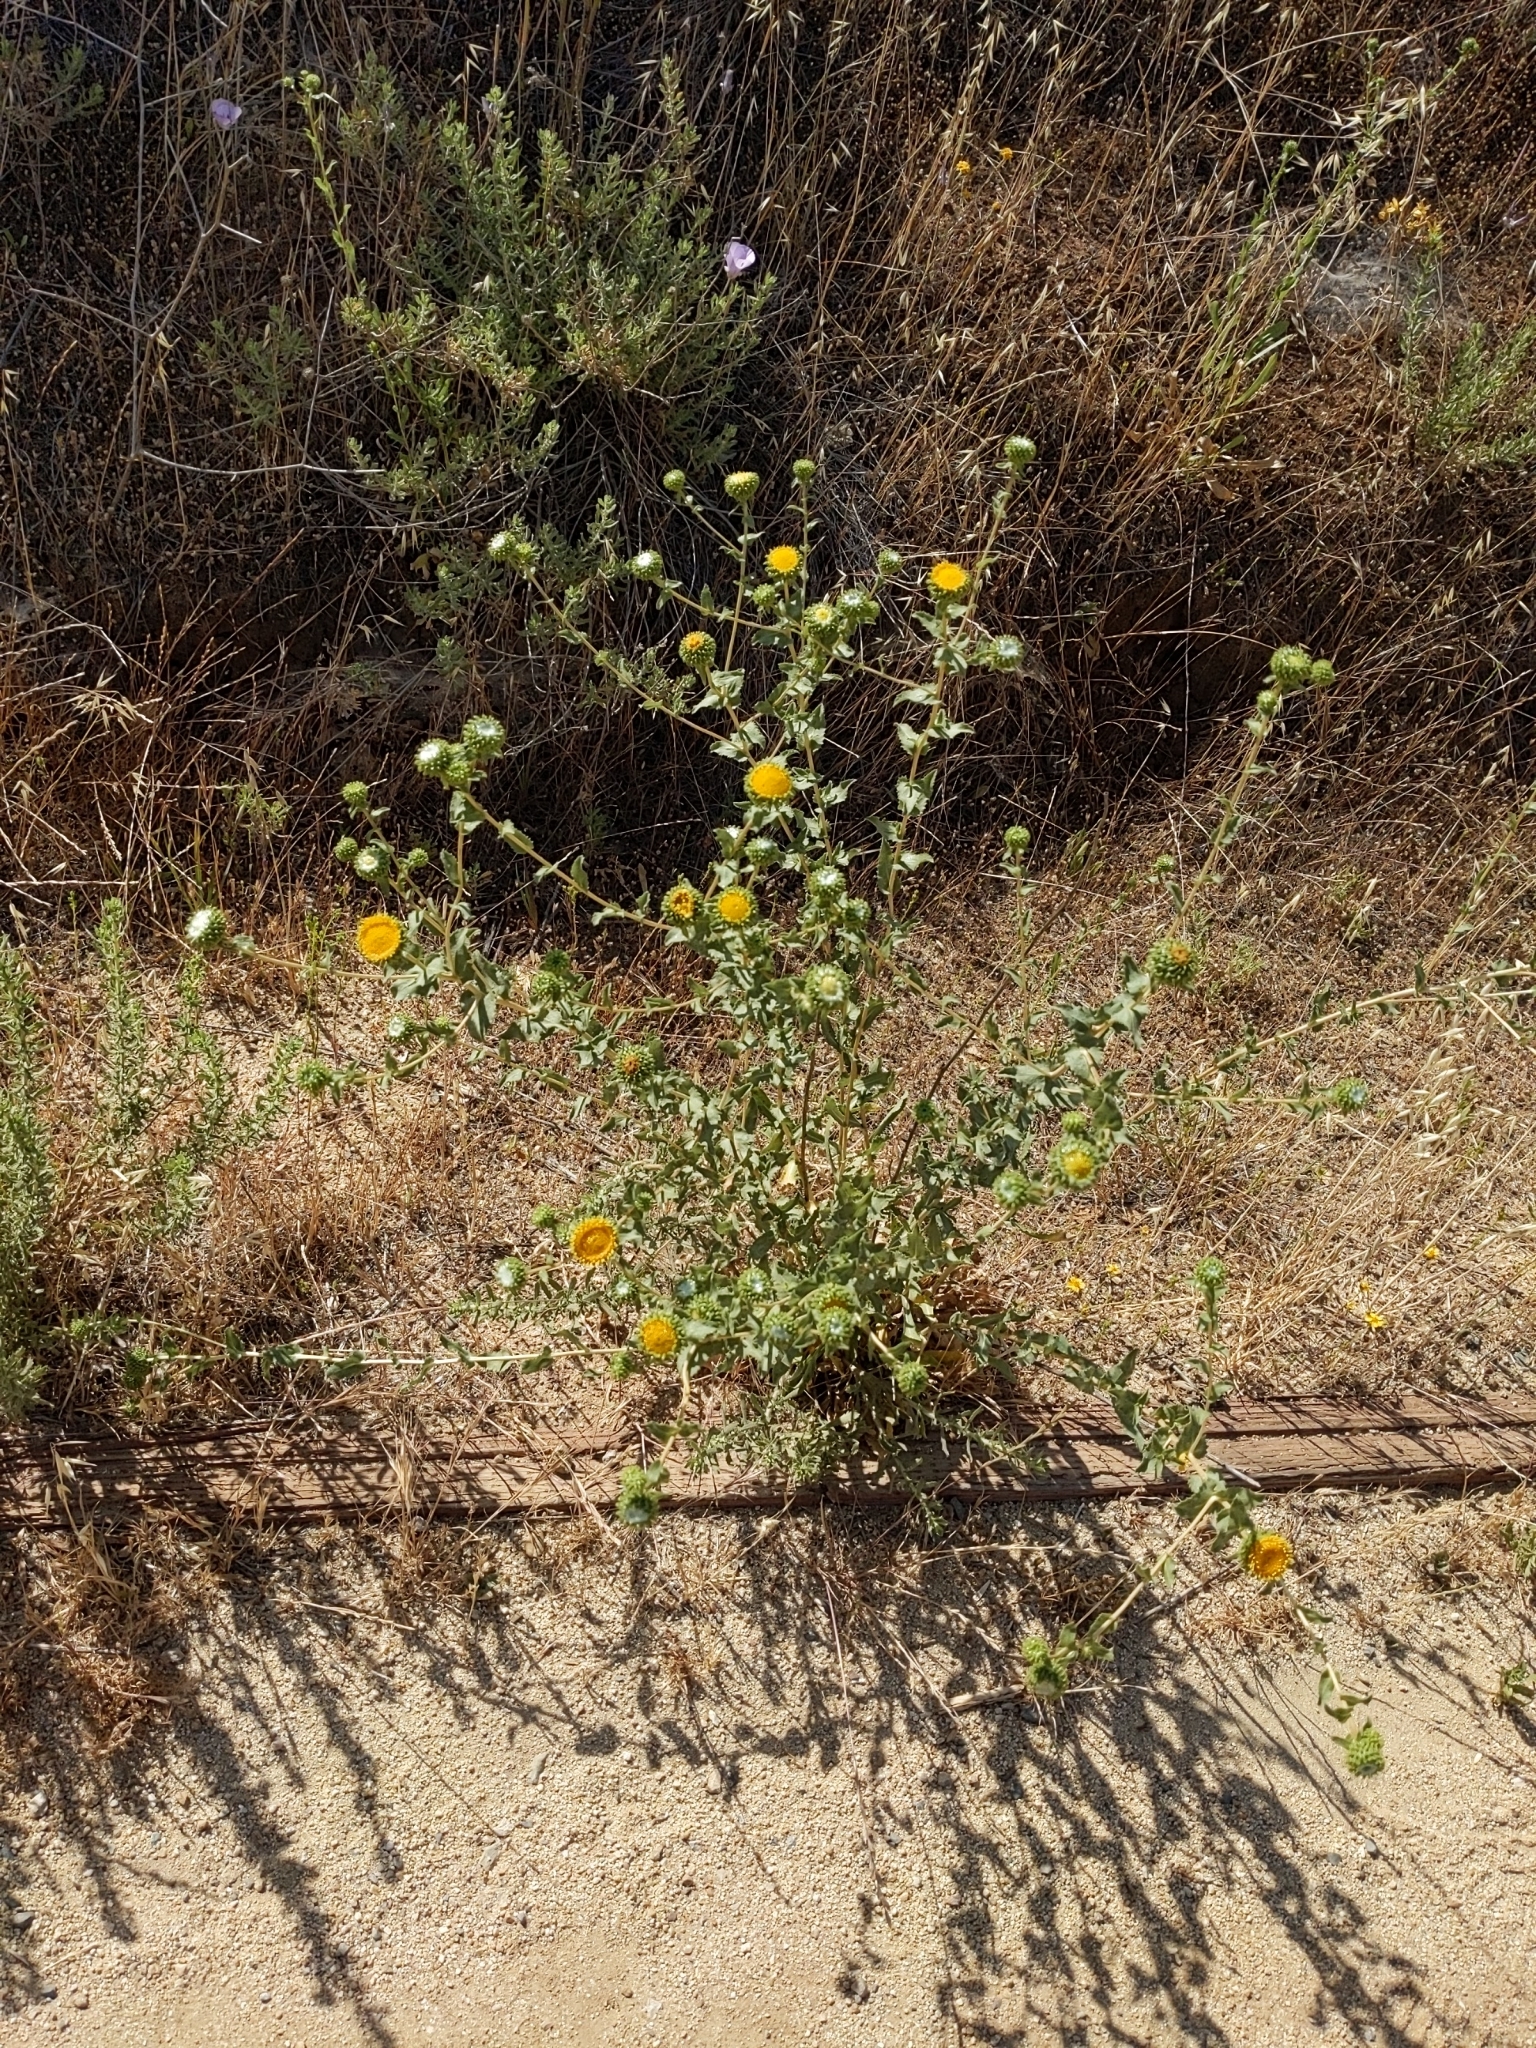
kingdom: Plantae
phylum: Tracheophyta
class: Magnoliopsida
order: Asterales
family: Asteraceae
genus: Grindelia
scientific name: Grindelia hirsutula
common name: Hairy gumweed
